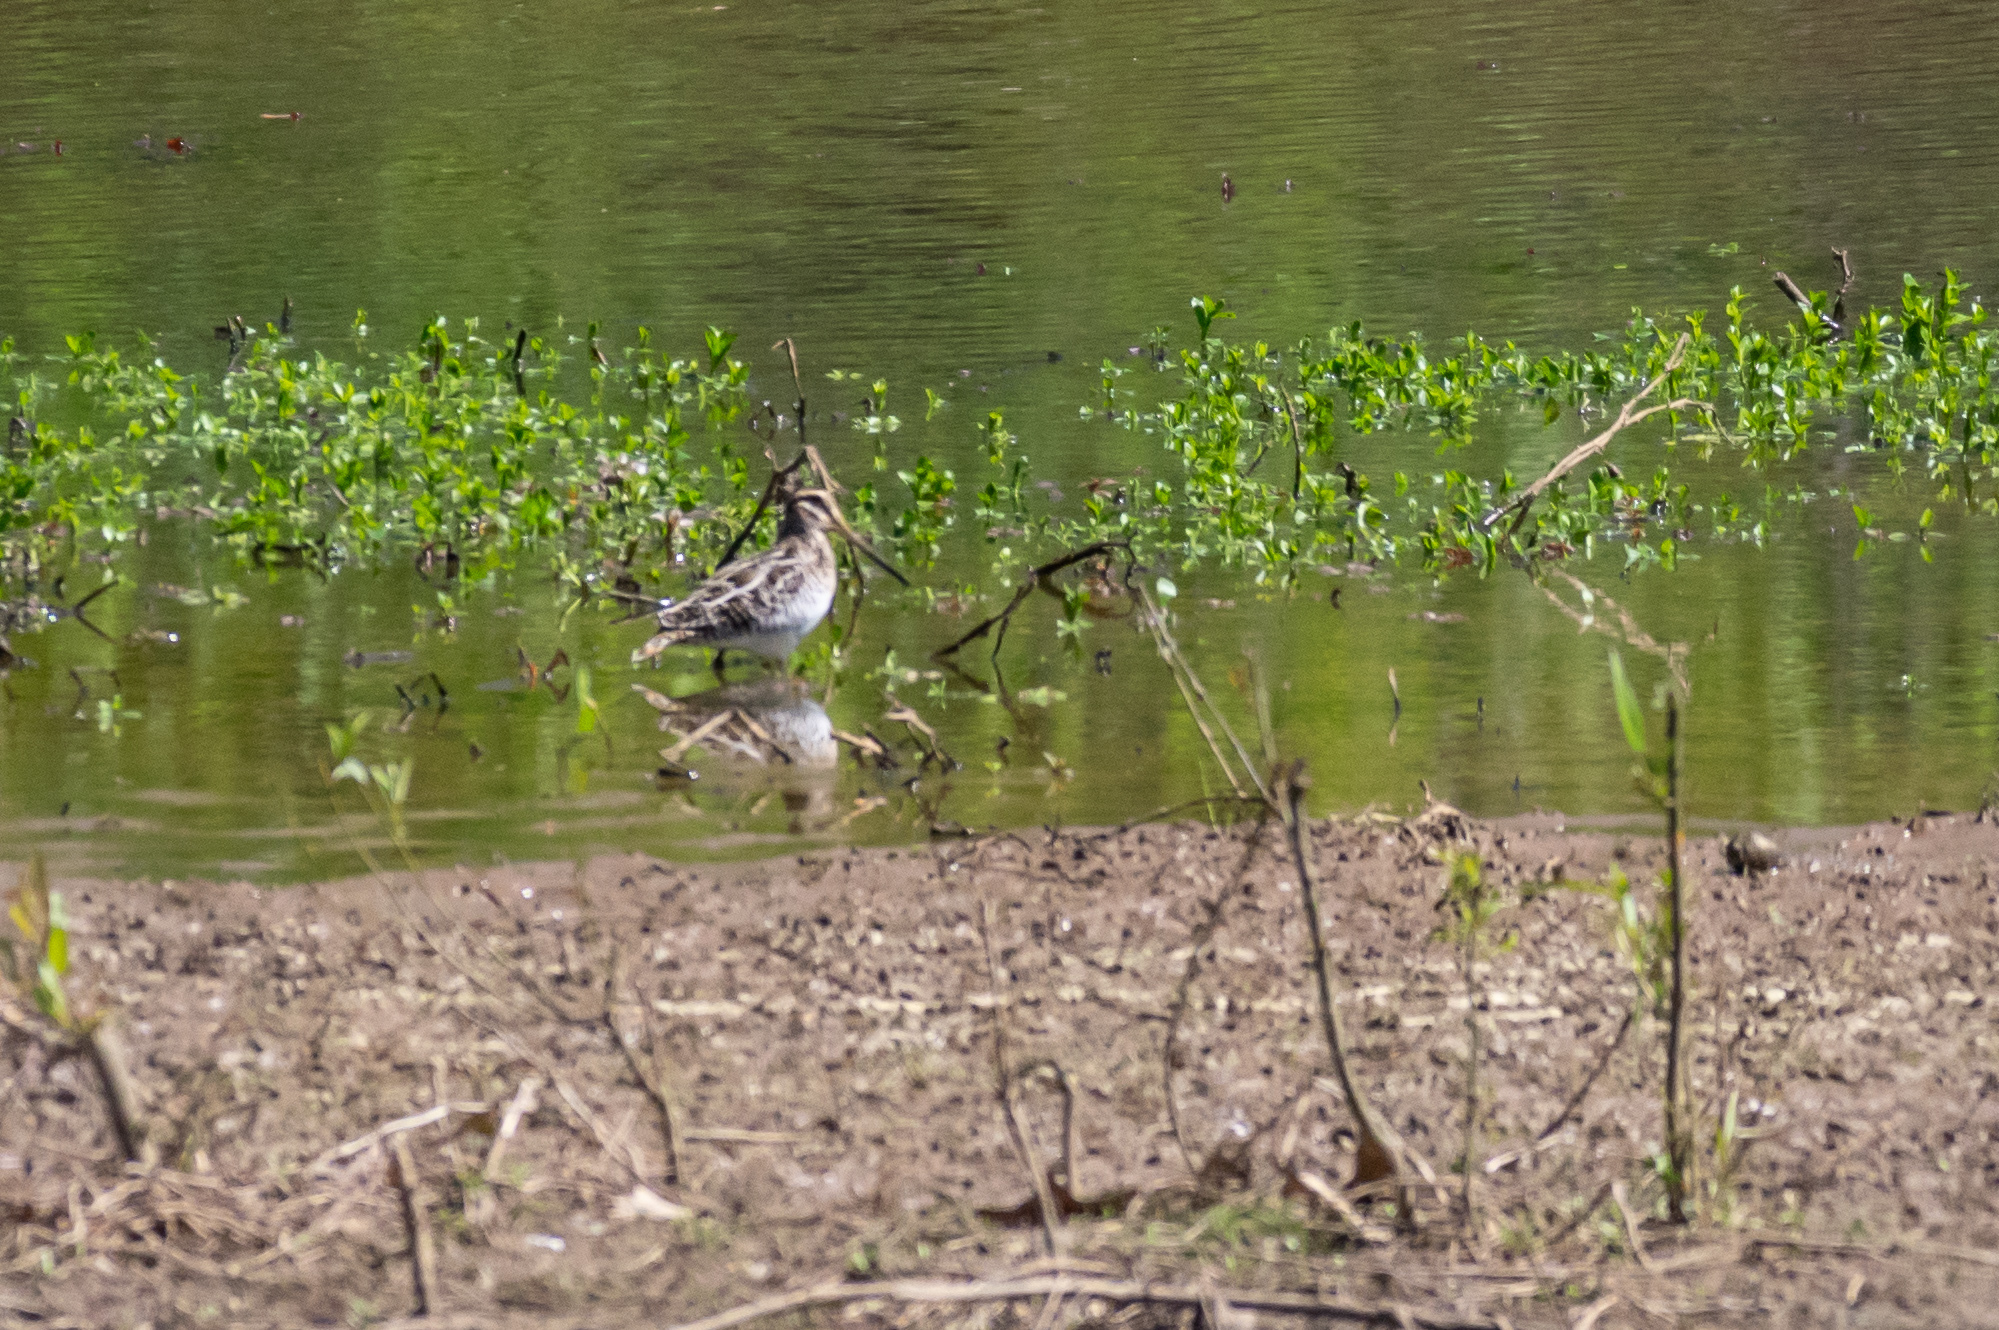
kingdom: Animalia
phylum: Chordata
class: Aves
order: Charadriiformes
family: Scolopacidae
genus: Gallinago
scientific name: Gallinago delicata
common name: Wilson's snipe
